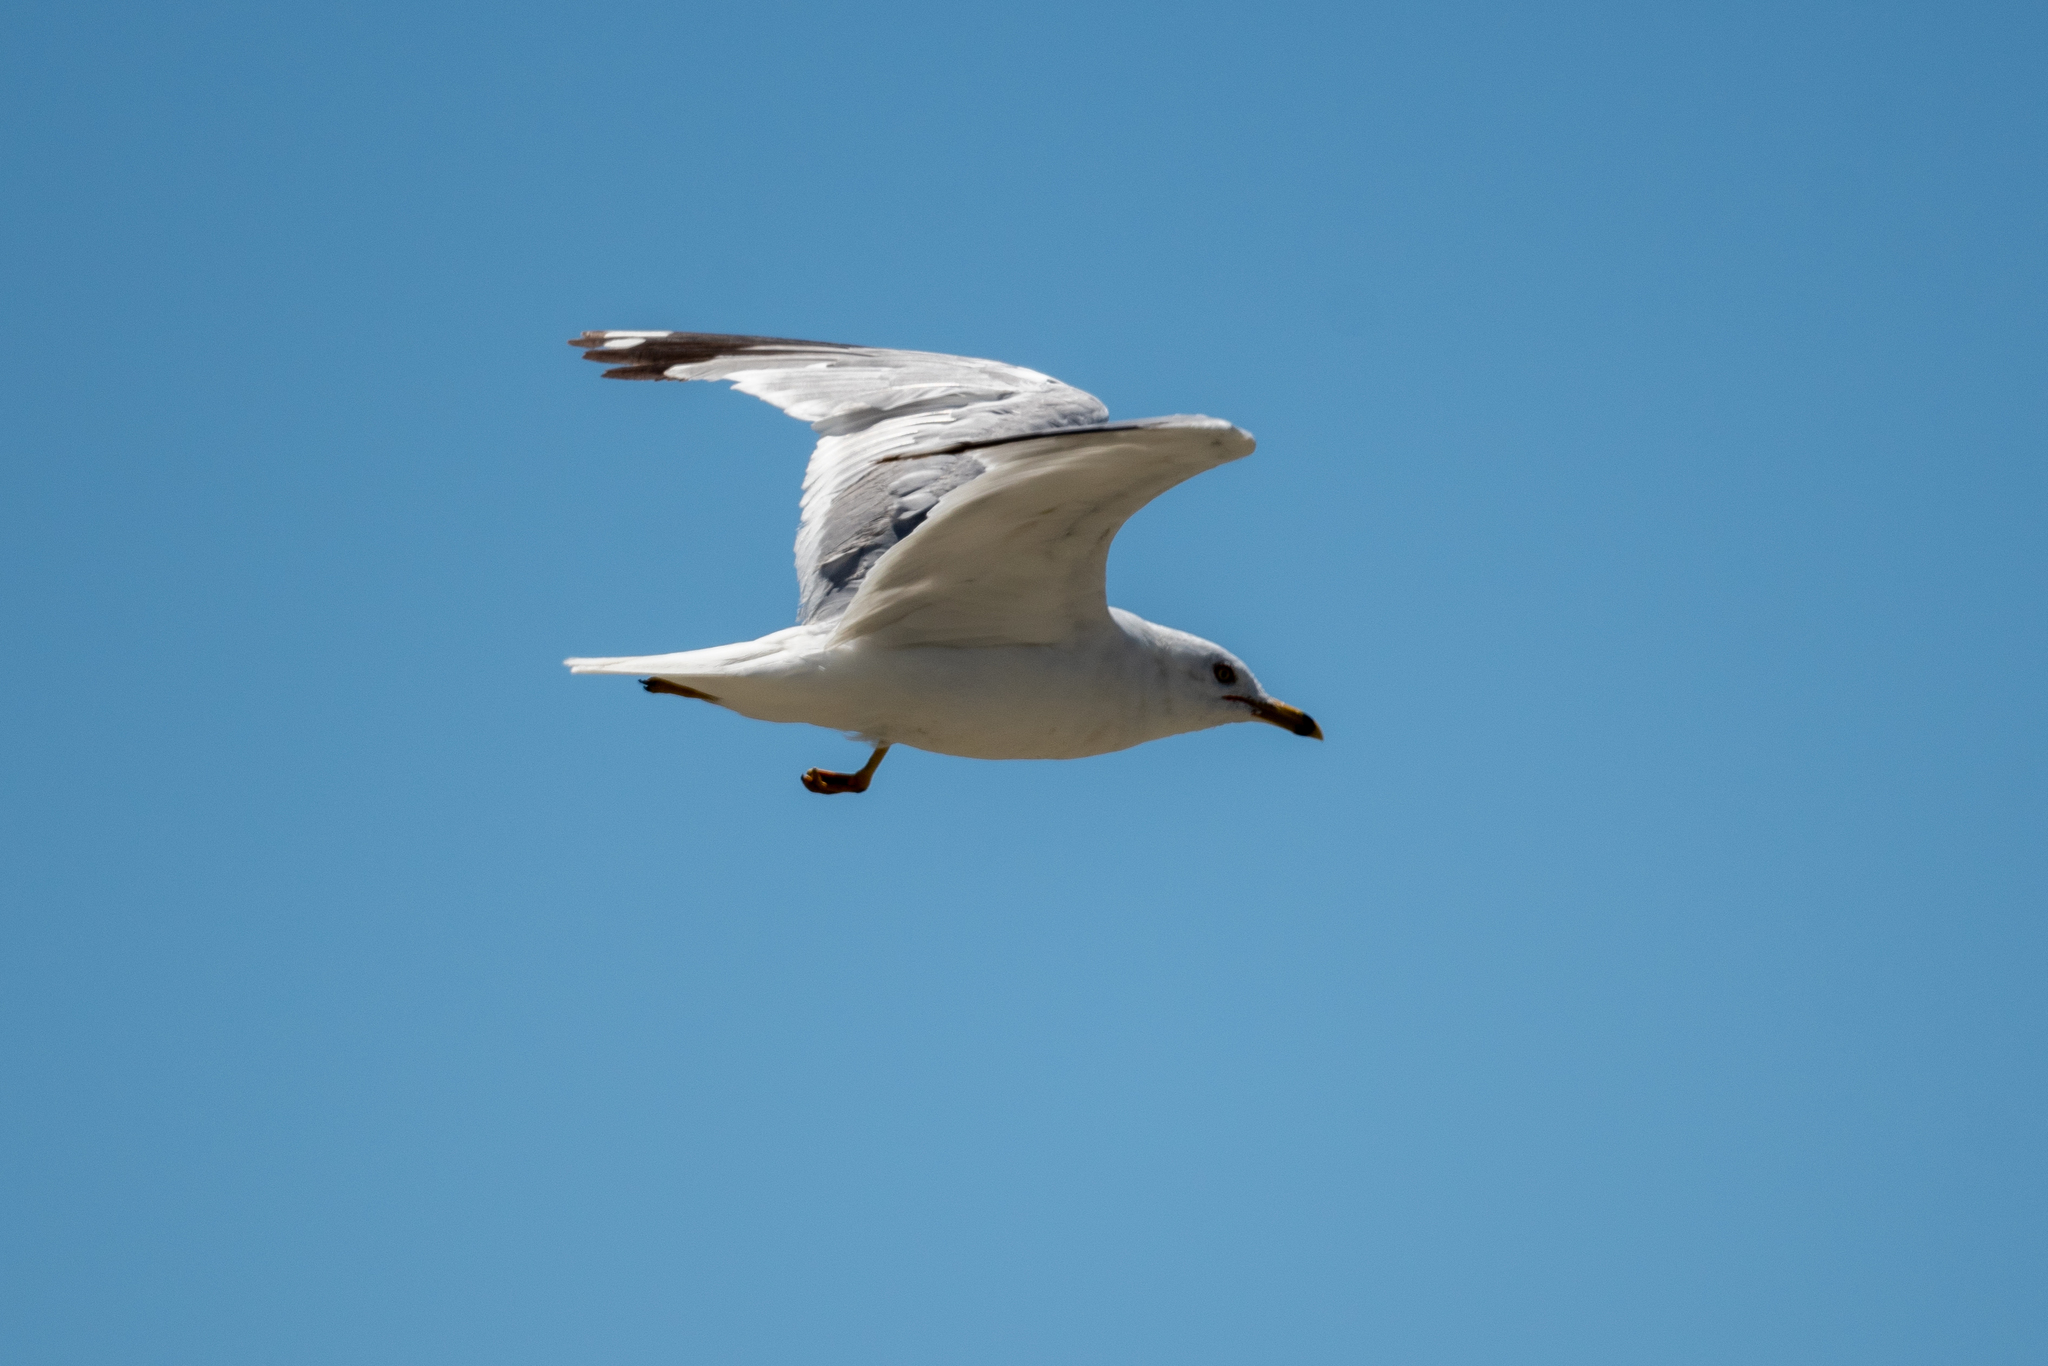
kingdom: Animalia
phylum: Chordata
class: Aves
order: Charadriiformes
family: Laridae
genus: Larus
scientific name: Larus delawarensis
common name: Ring-billed gull
